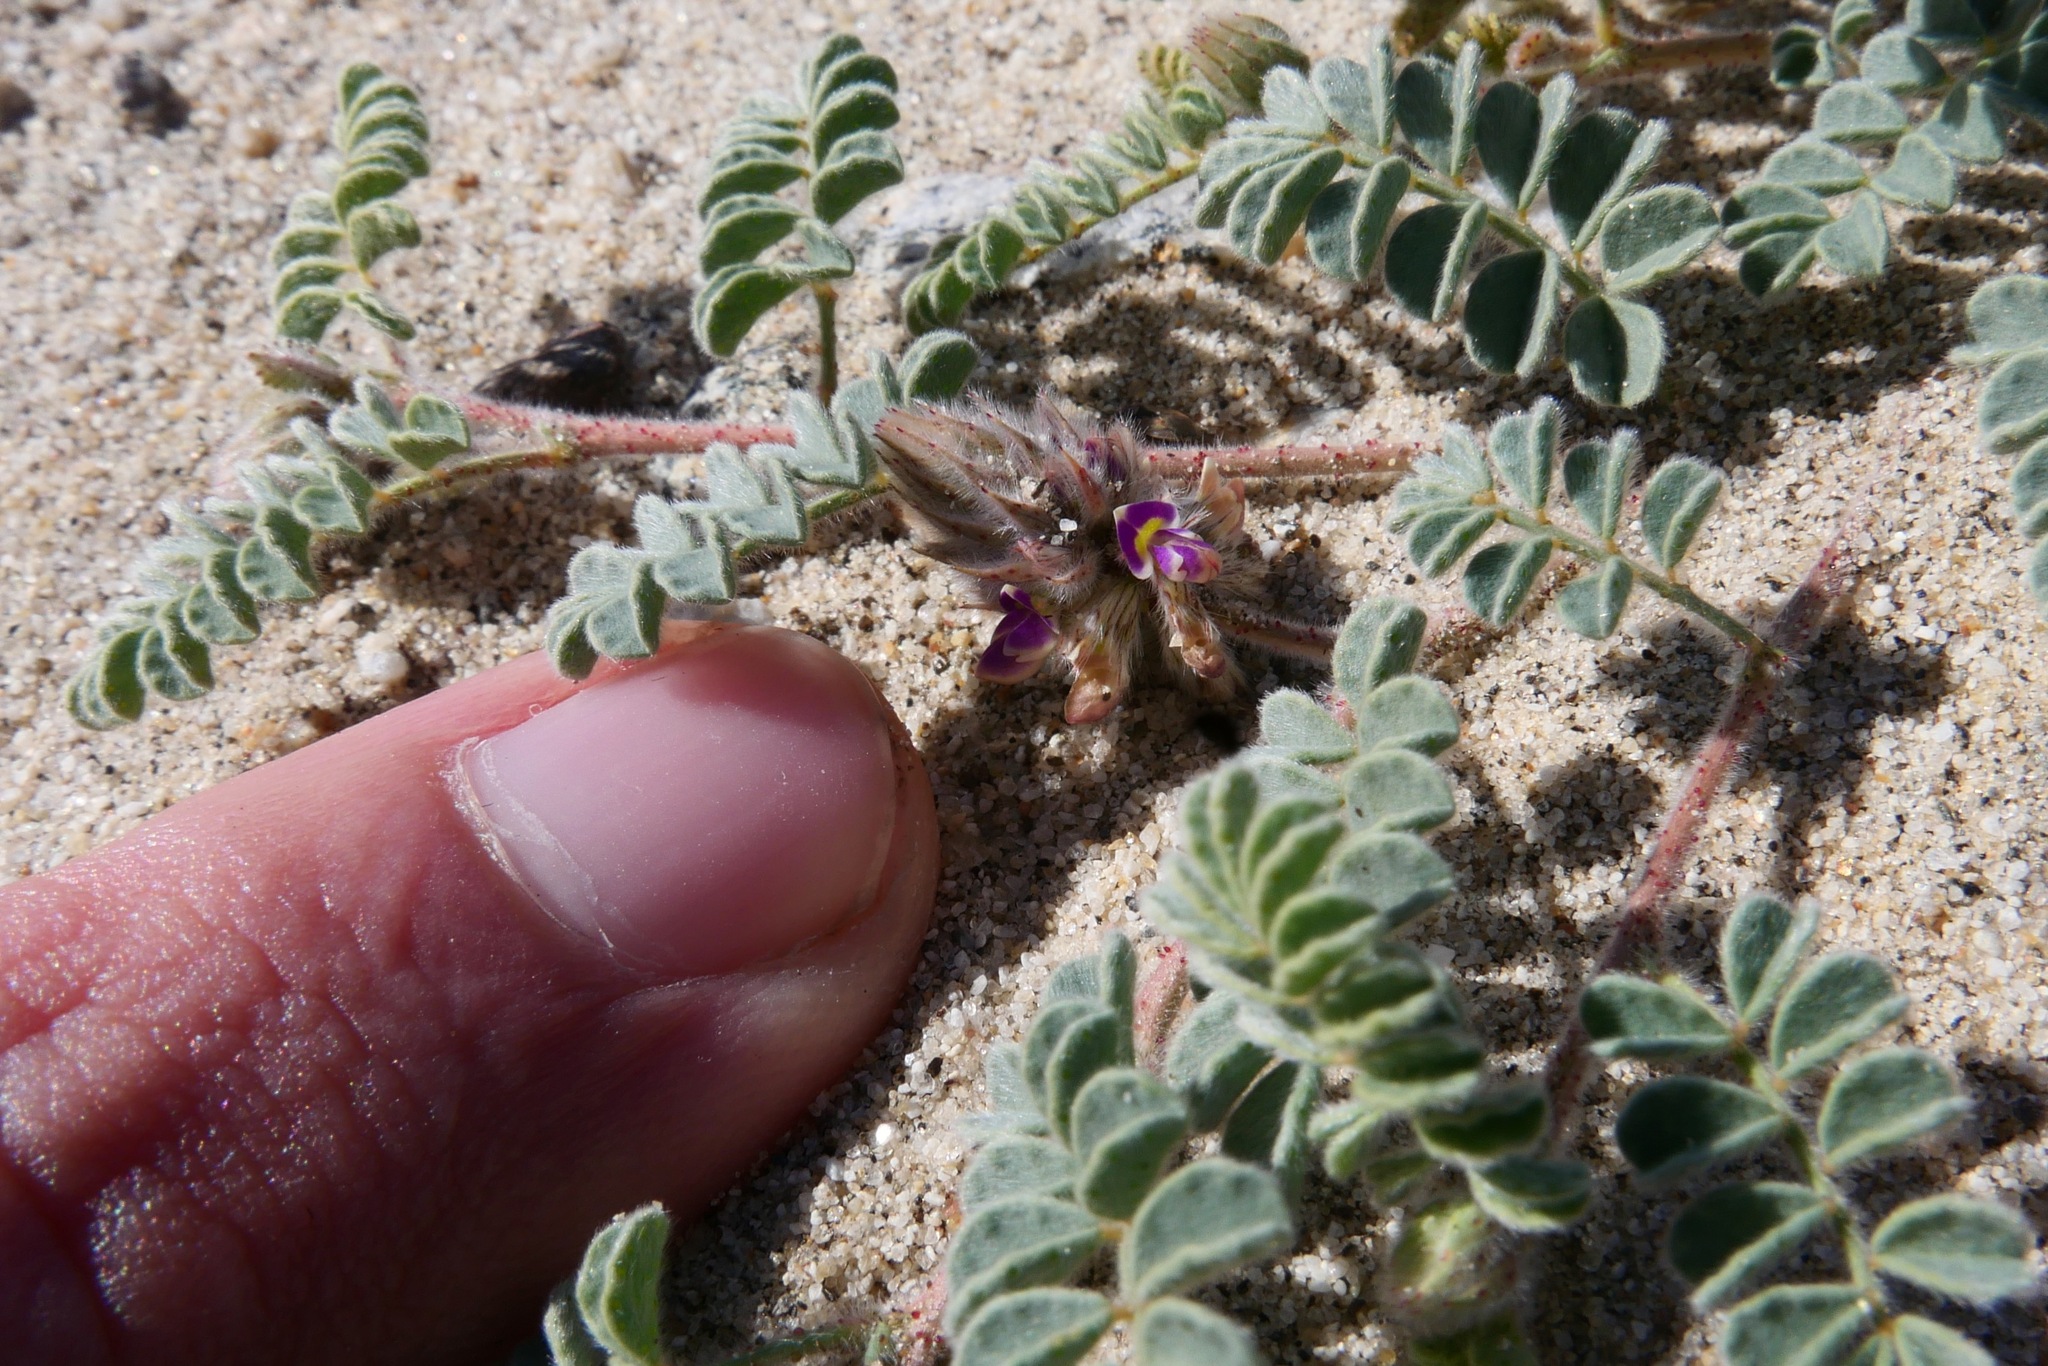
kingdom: Plantae
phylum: Tracheophyta
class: Magnoliopsida
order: Fabales
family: Fabaceae
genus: Dalea
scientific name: Dalea mollis
